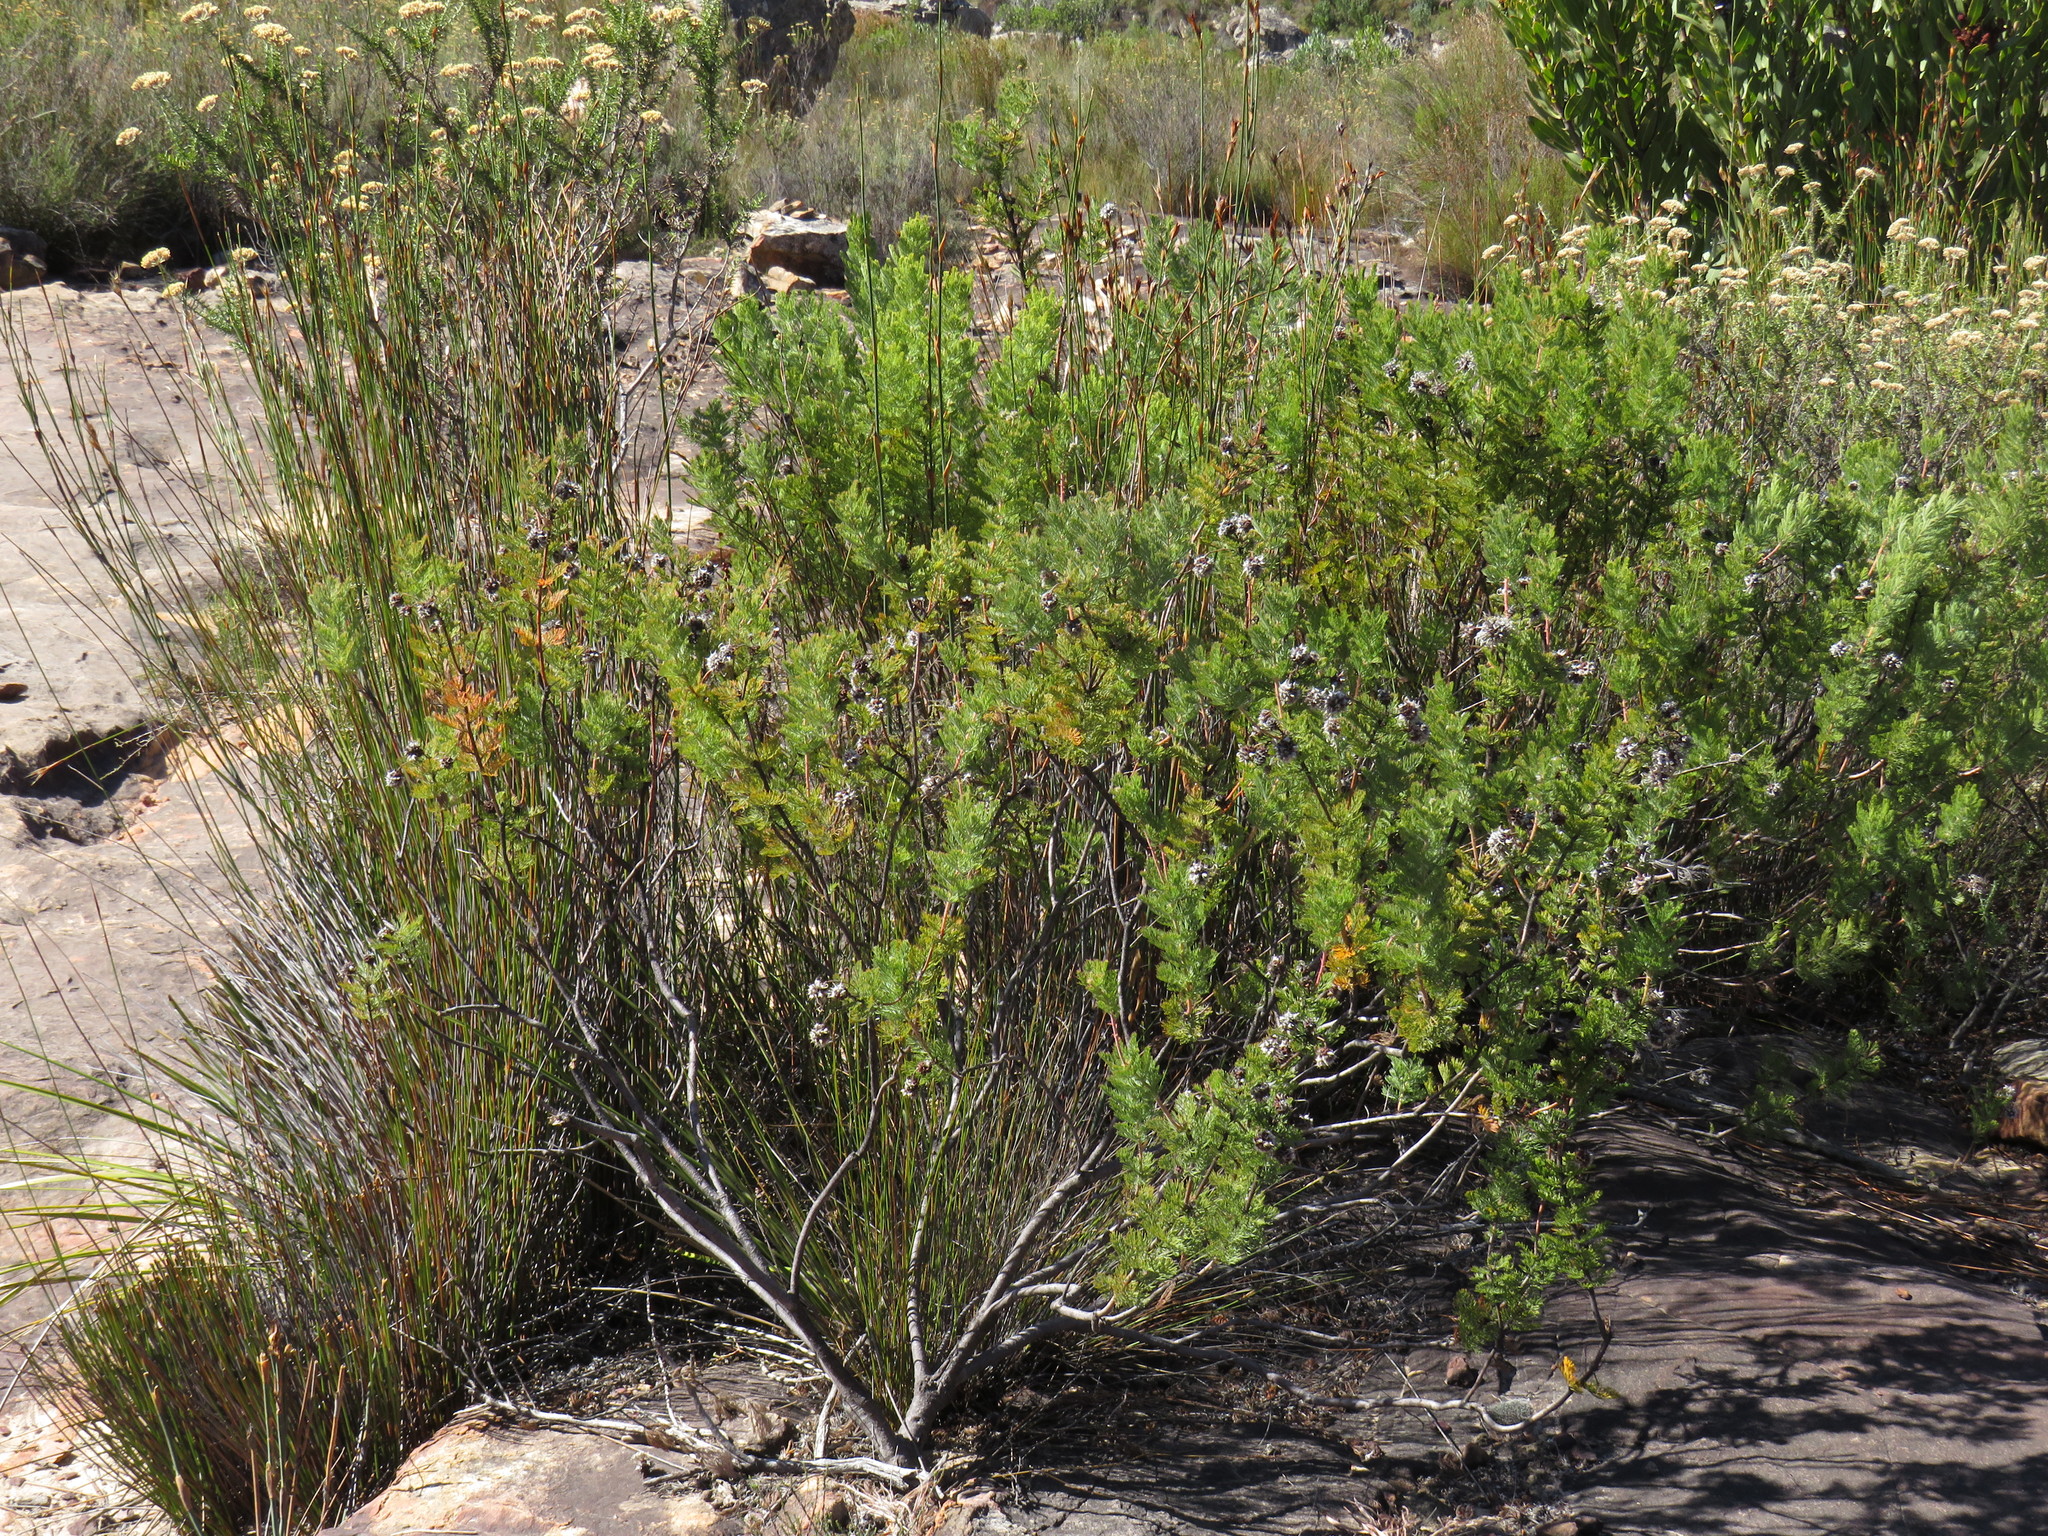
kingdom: Plantae
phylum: Tracheophyta
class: Magnoliopsida
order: Proteales
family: Proteaceae
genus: Serruria
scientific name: Serruria pedunculata
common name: Fan-leaf spiderhead
